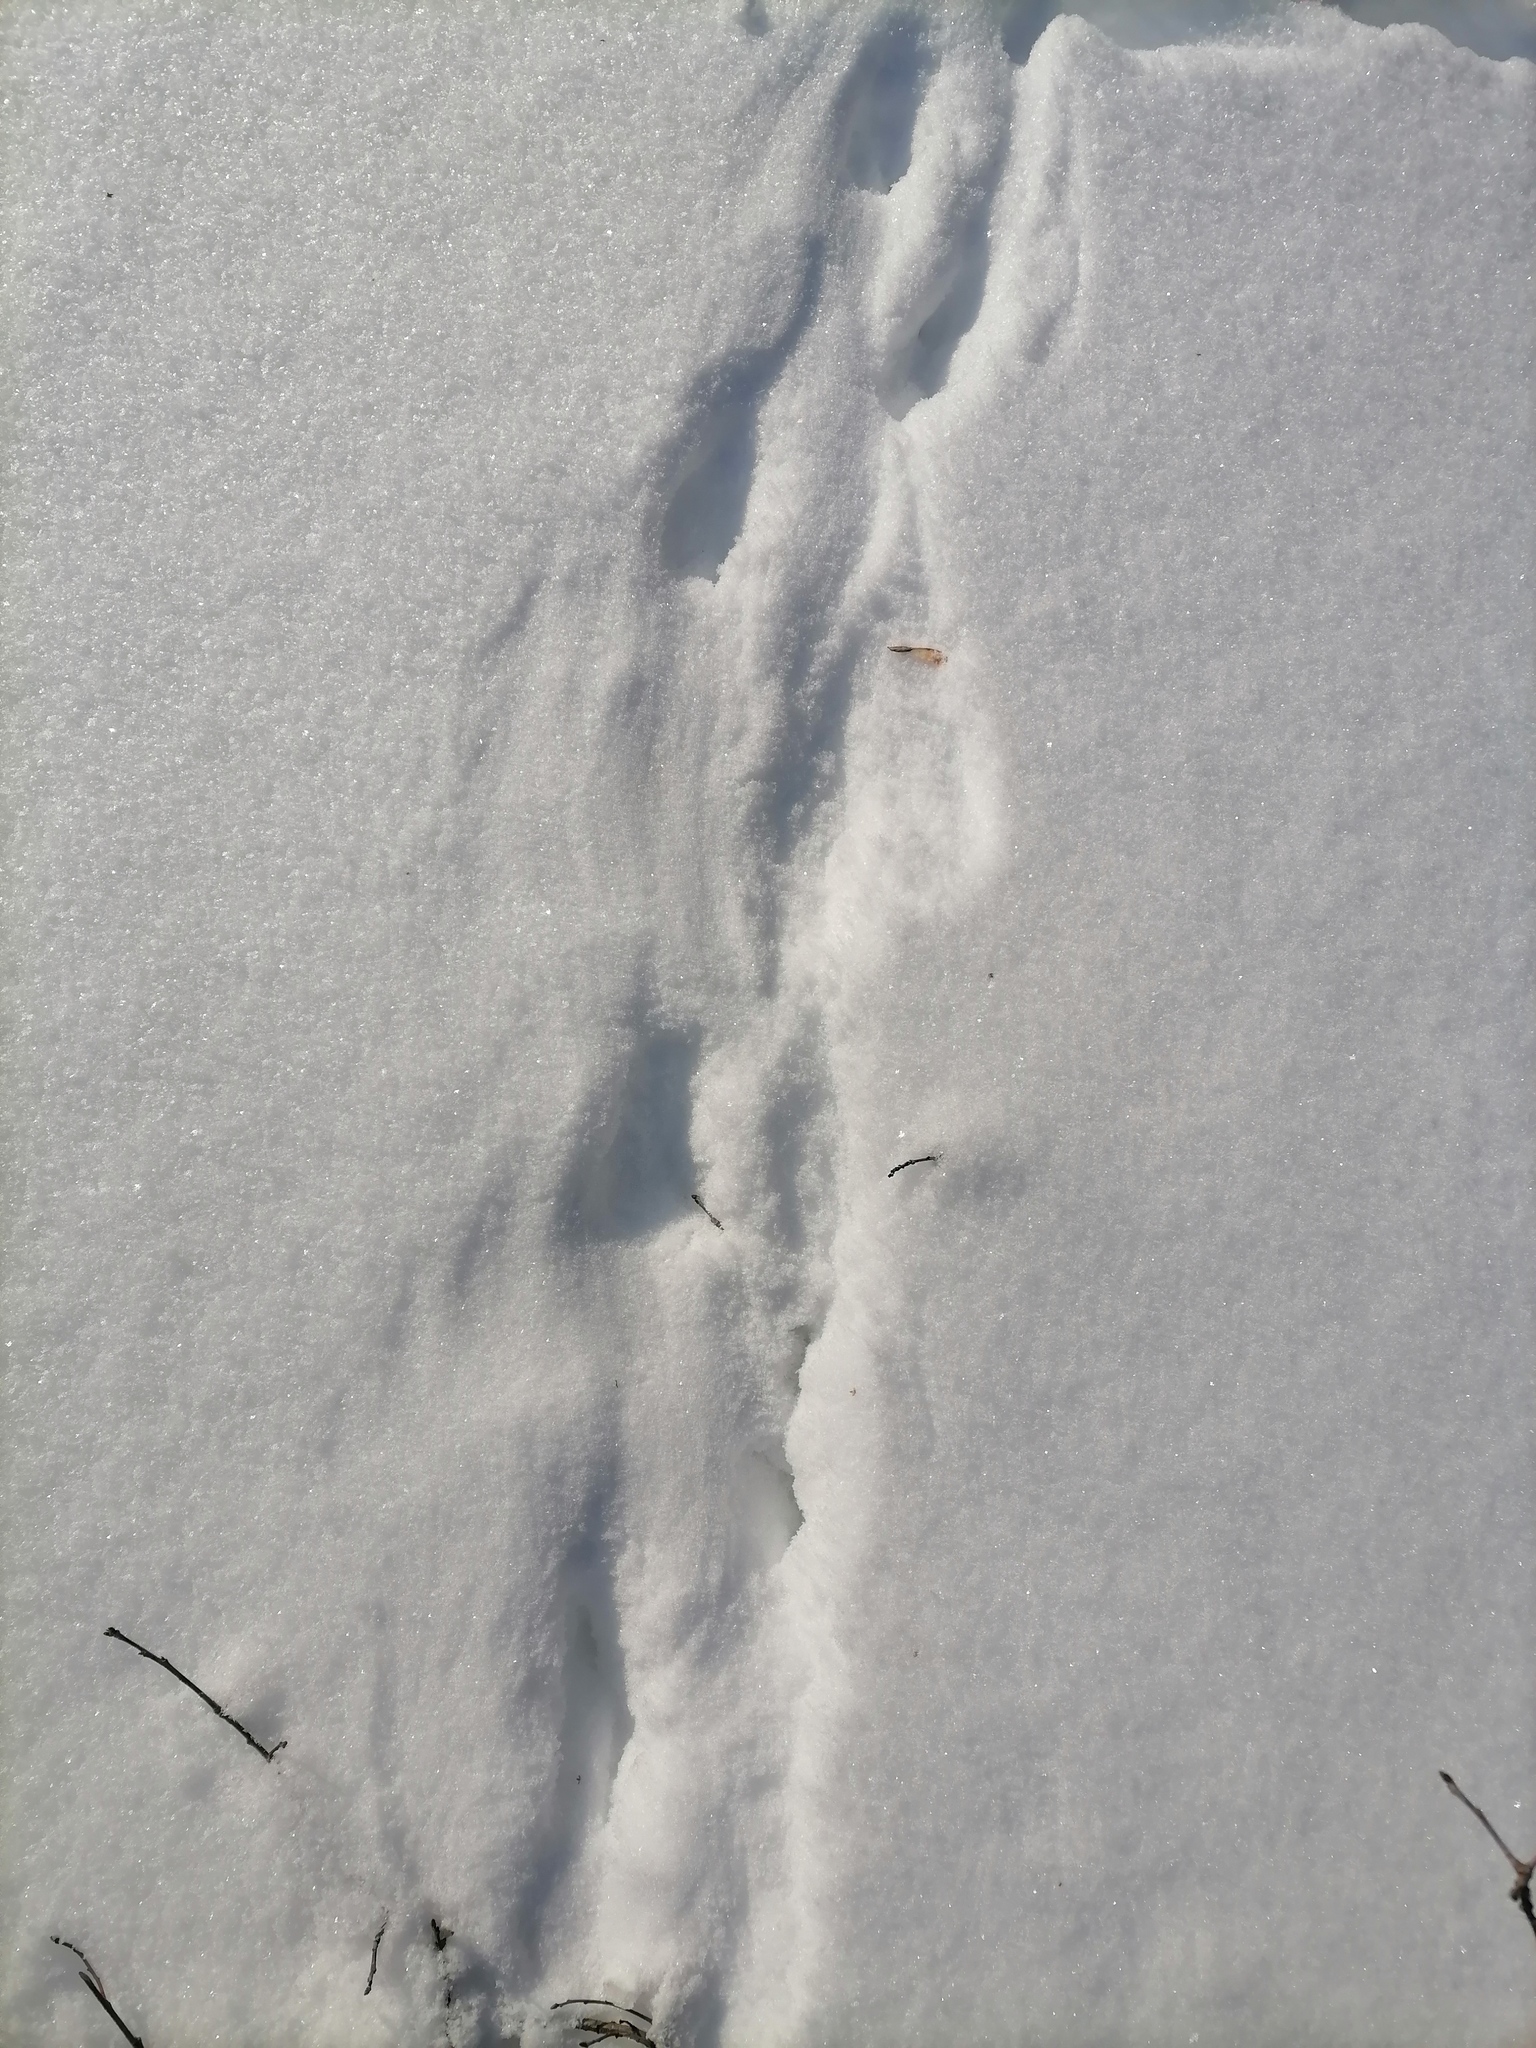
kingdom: Animalia
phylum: Chordata
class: Aves
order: Galliformes
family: Phasianidae
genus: Lyrurus
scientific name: Lyrurus tetrix
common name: Black grouse
